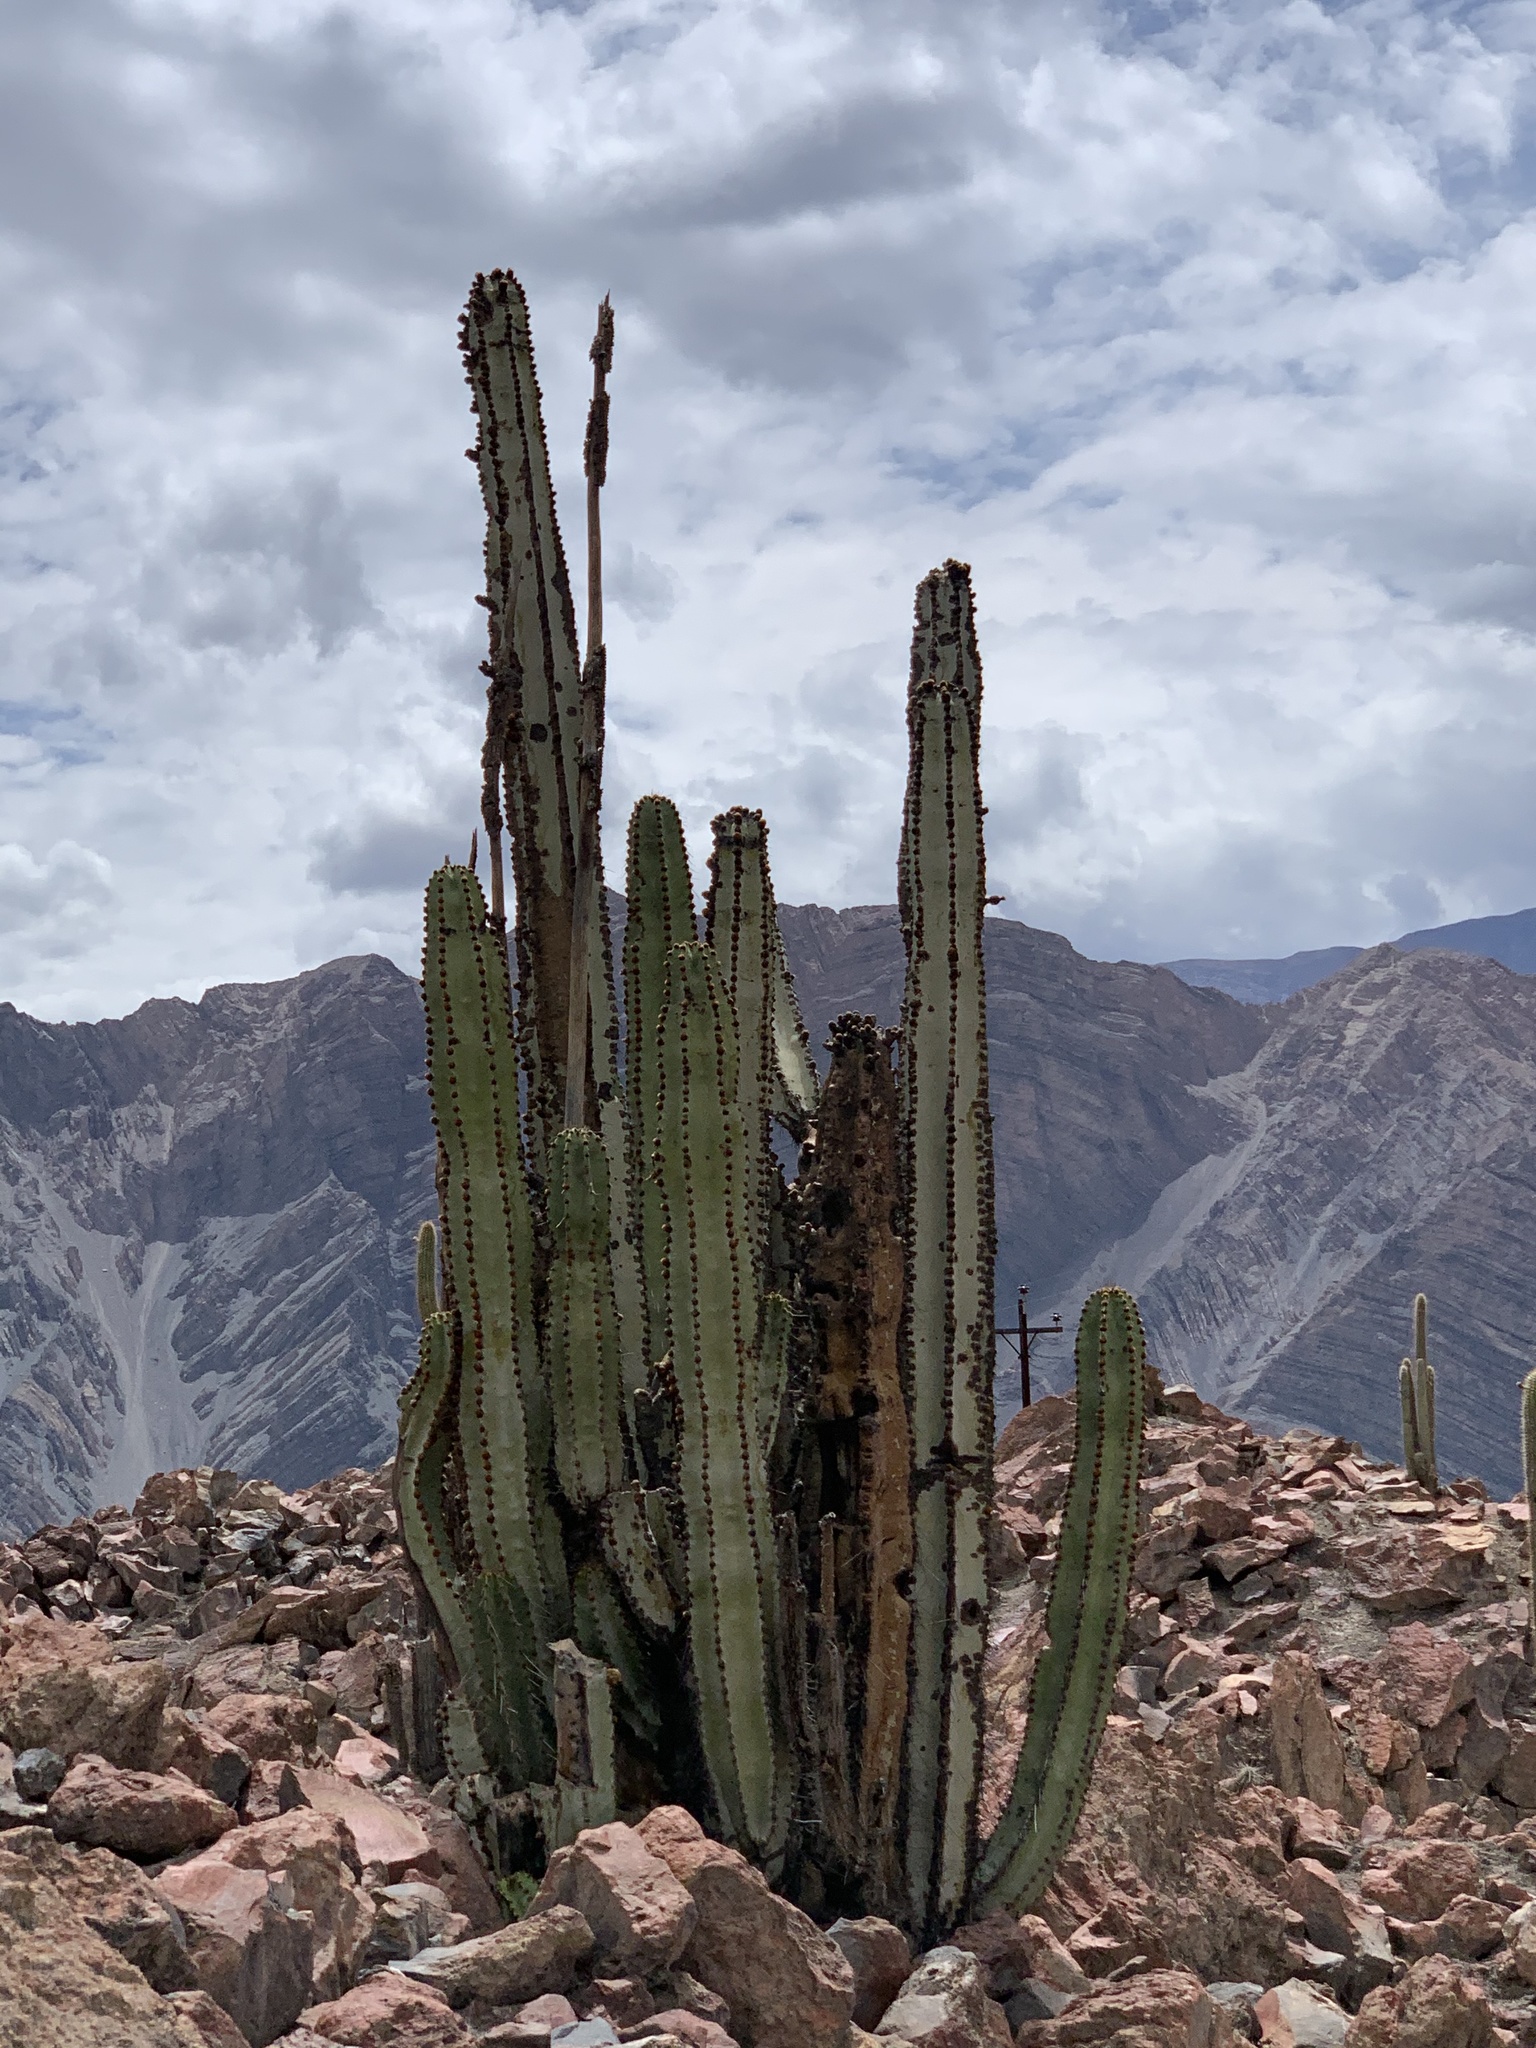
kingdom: Plantae
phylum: Tracheophyta
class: Magnoliopsida
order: Caryophyllales
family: Cactaceae
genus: Neoraimondia
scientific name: Neoraimondia arequipensis
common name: Big-bed-of-straw
